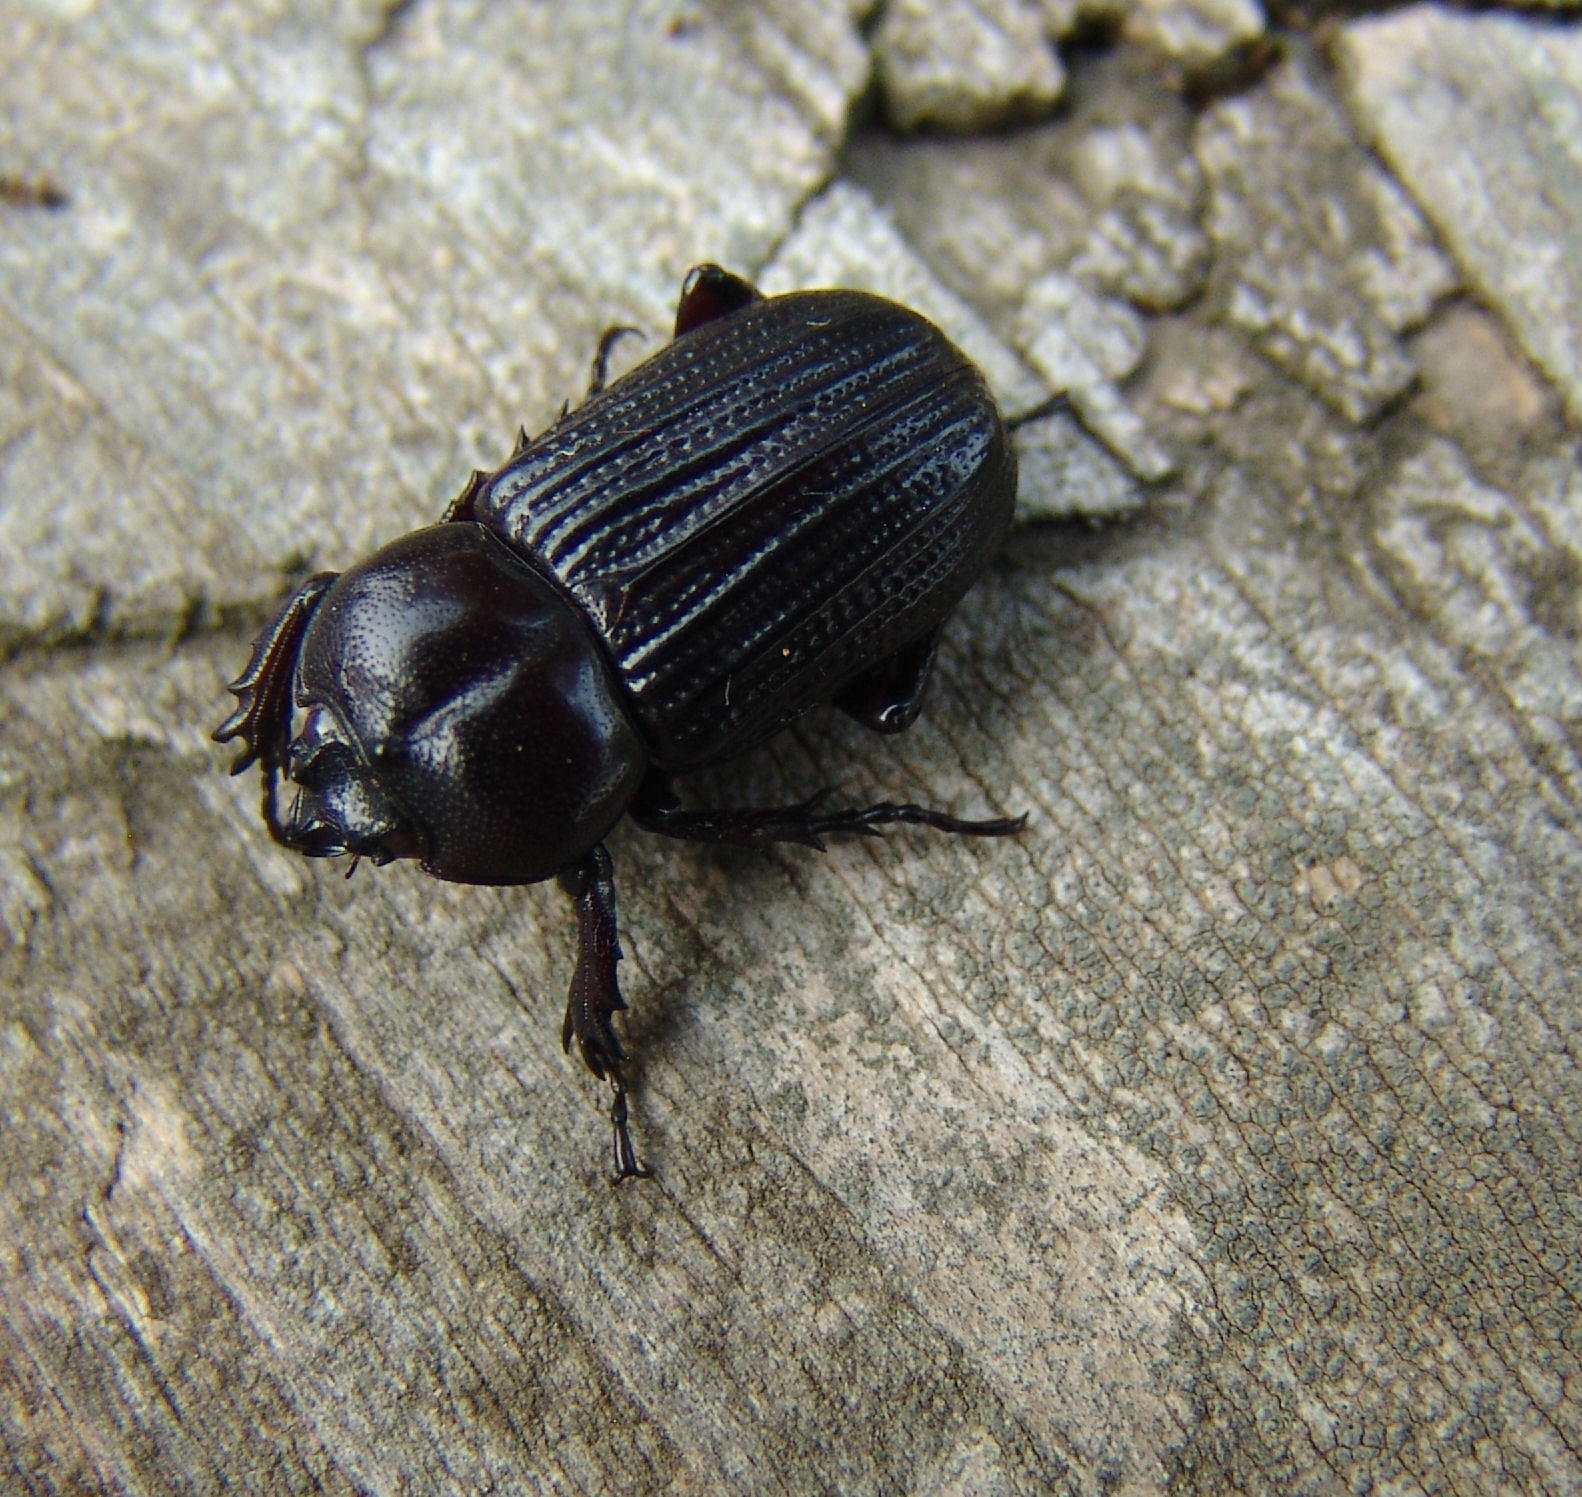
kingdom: Animalia
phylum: Arthropoda
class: Insecta
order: Coleoptera
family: Scarabaeidae
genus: Phileurus
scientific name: Phileurus valgus
